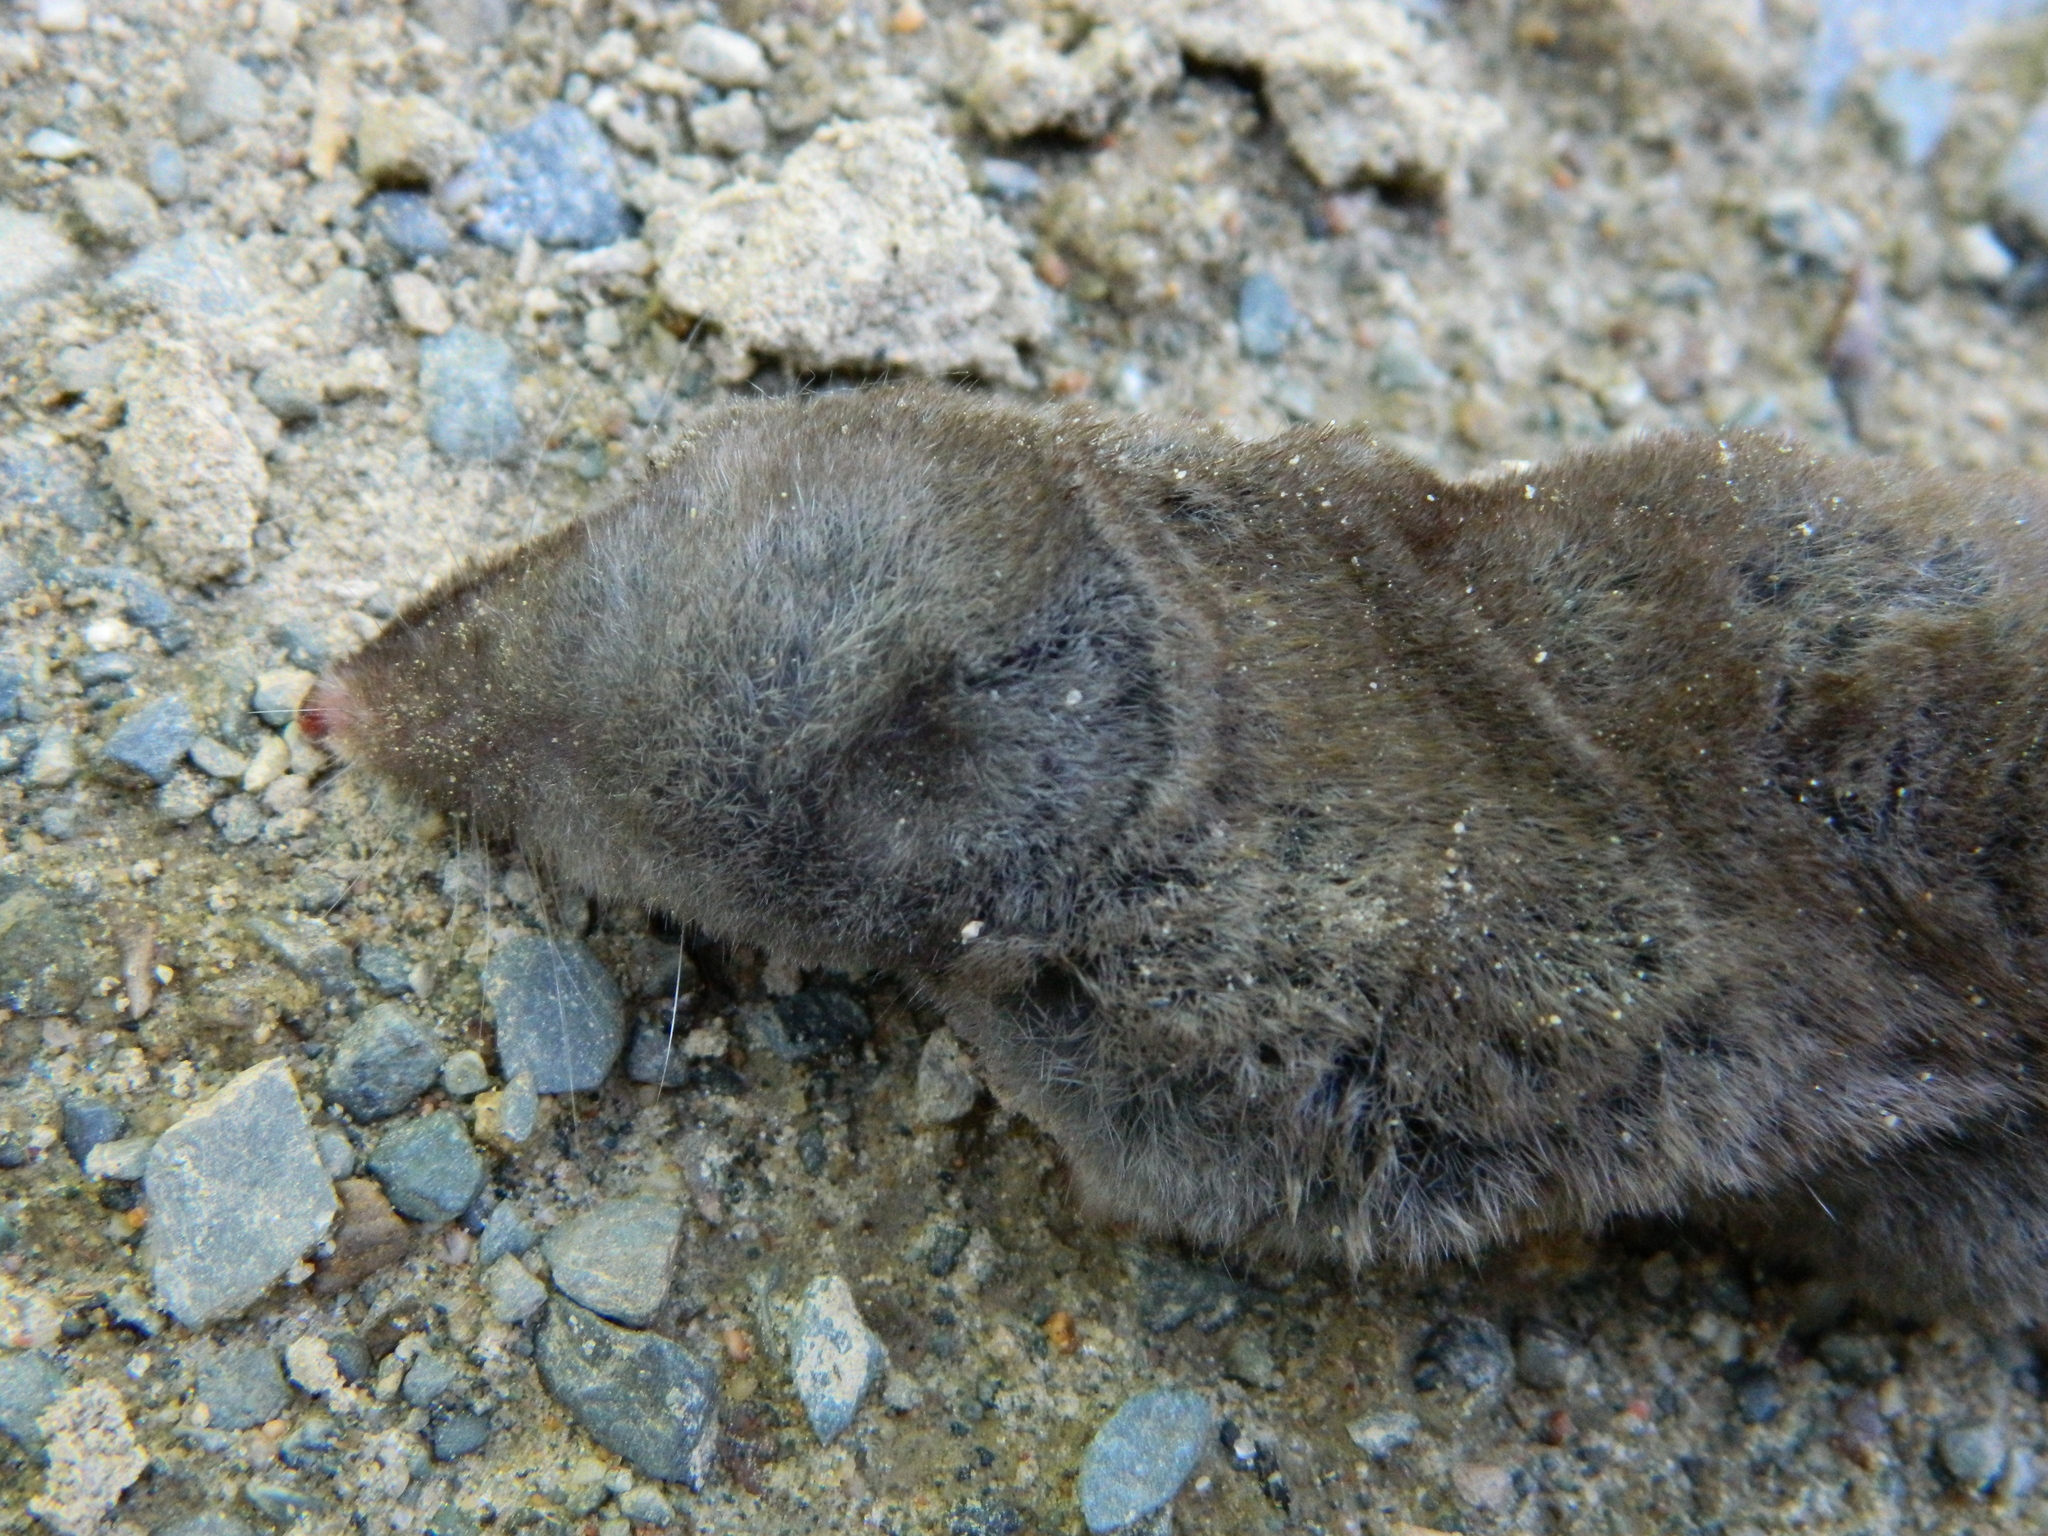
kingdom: Animalia
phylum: Chordata
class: Mammalia
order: Soricomorpha
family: Soricidae
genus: Blarina
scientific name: Blarina brevicauda
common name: Northern short-tailed shrew
